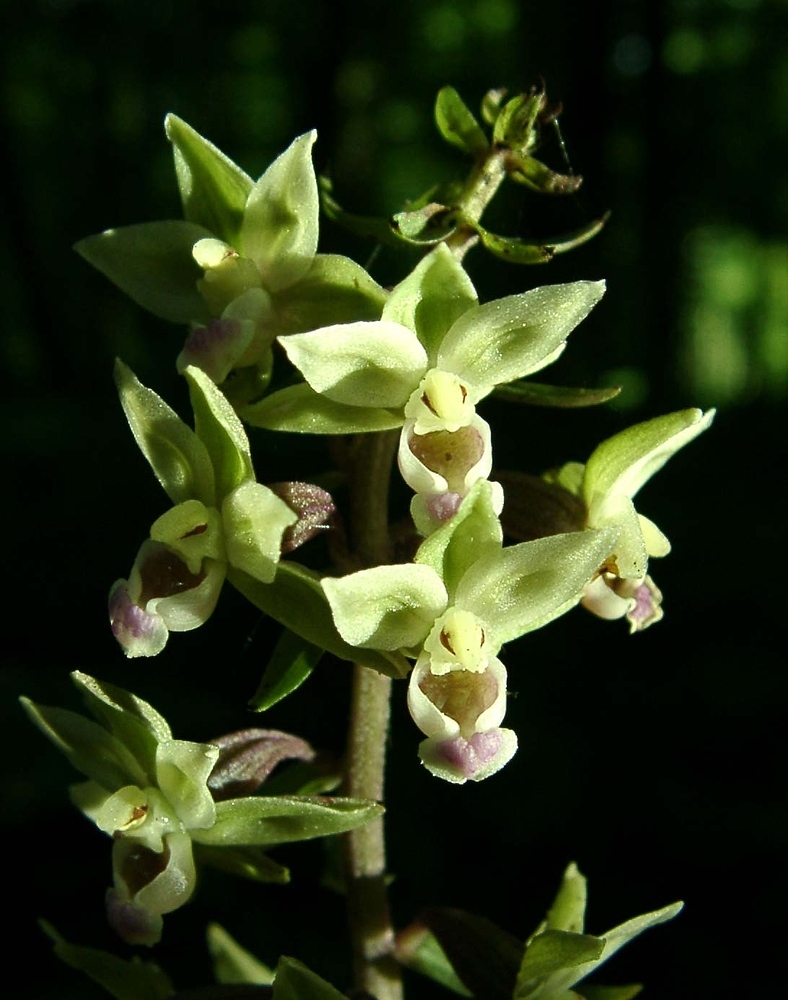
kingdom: Plantae
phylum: Tracheophyta
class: Liliopsida
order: Asparagales
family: Orchidaceae
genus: Epipactis
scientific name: Epipactis purpurata
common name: Violet helleborine
